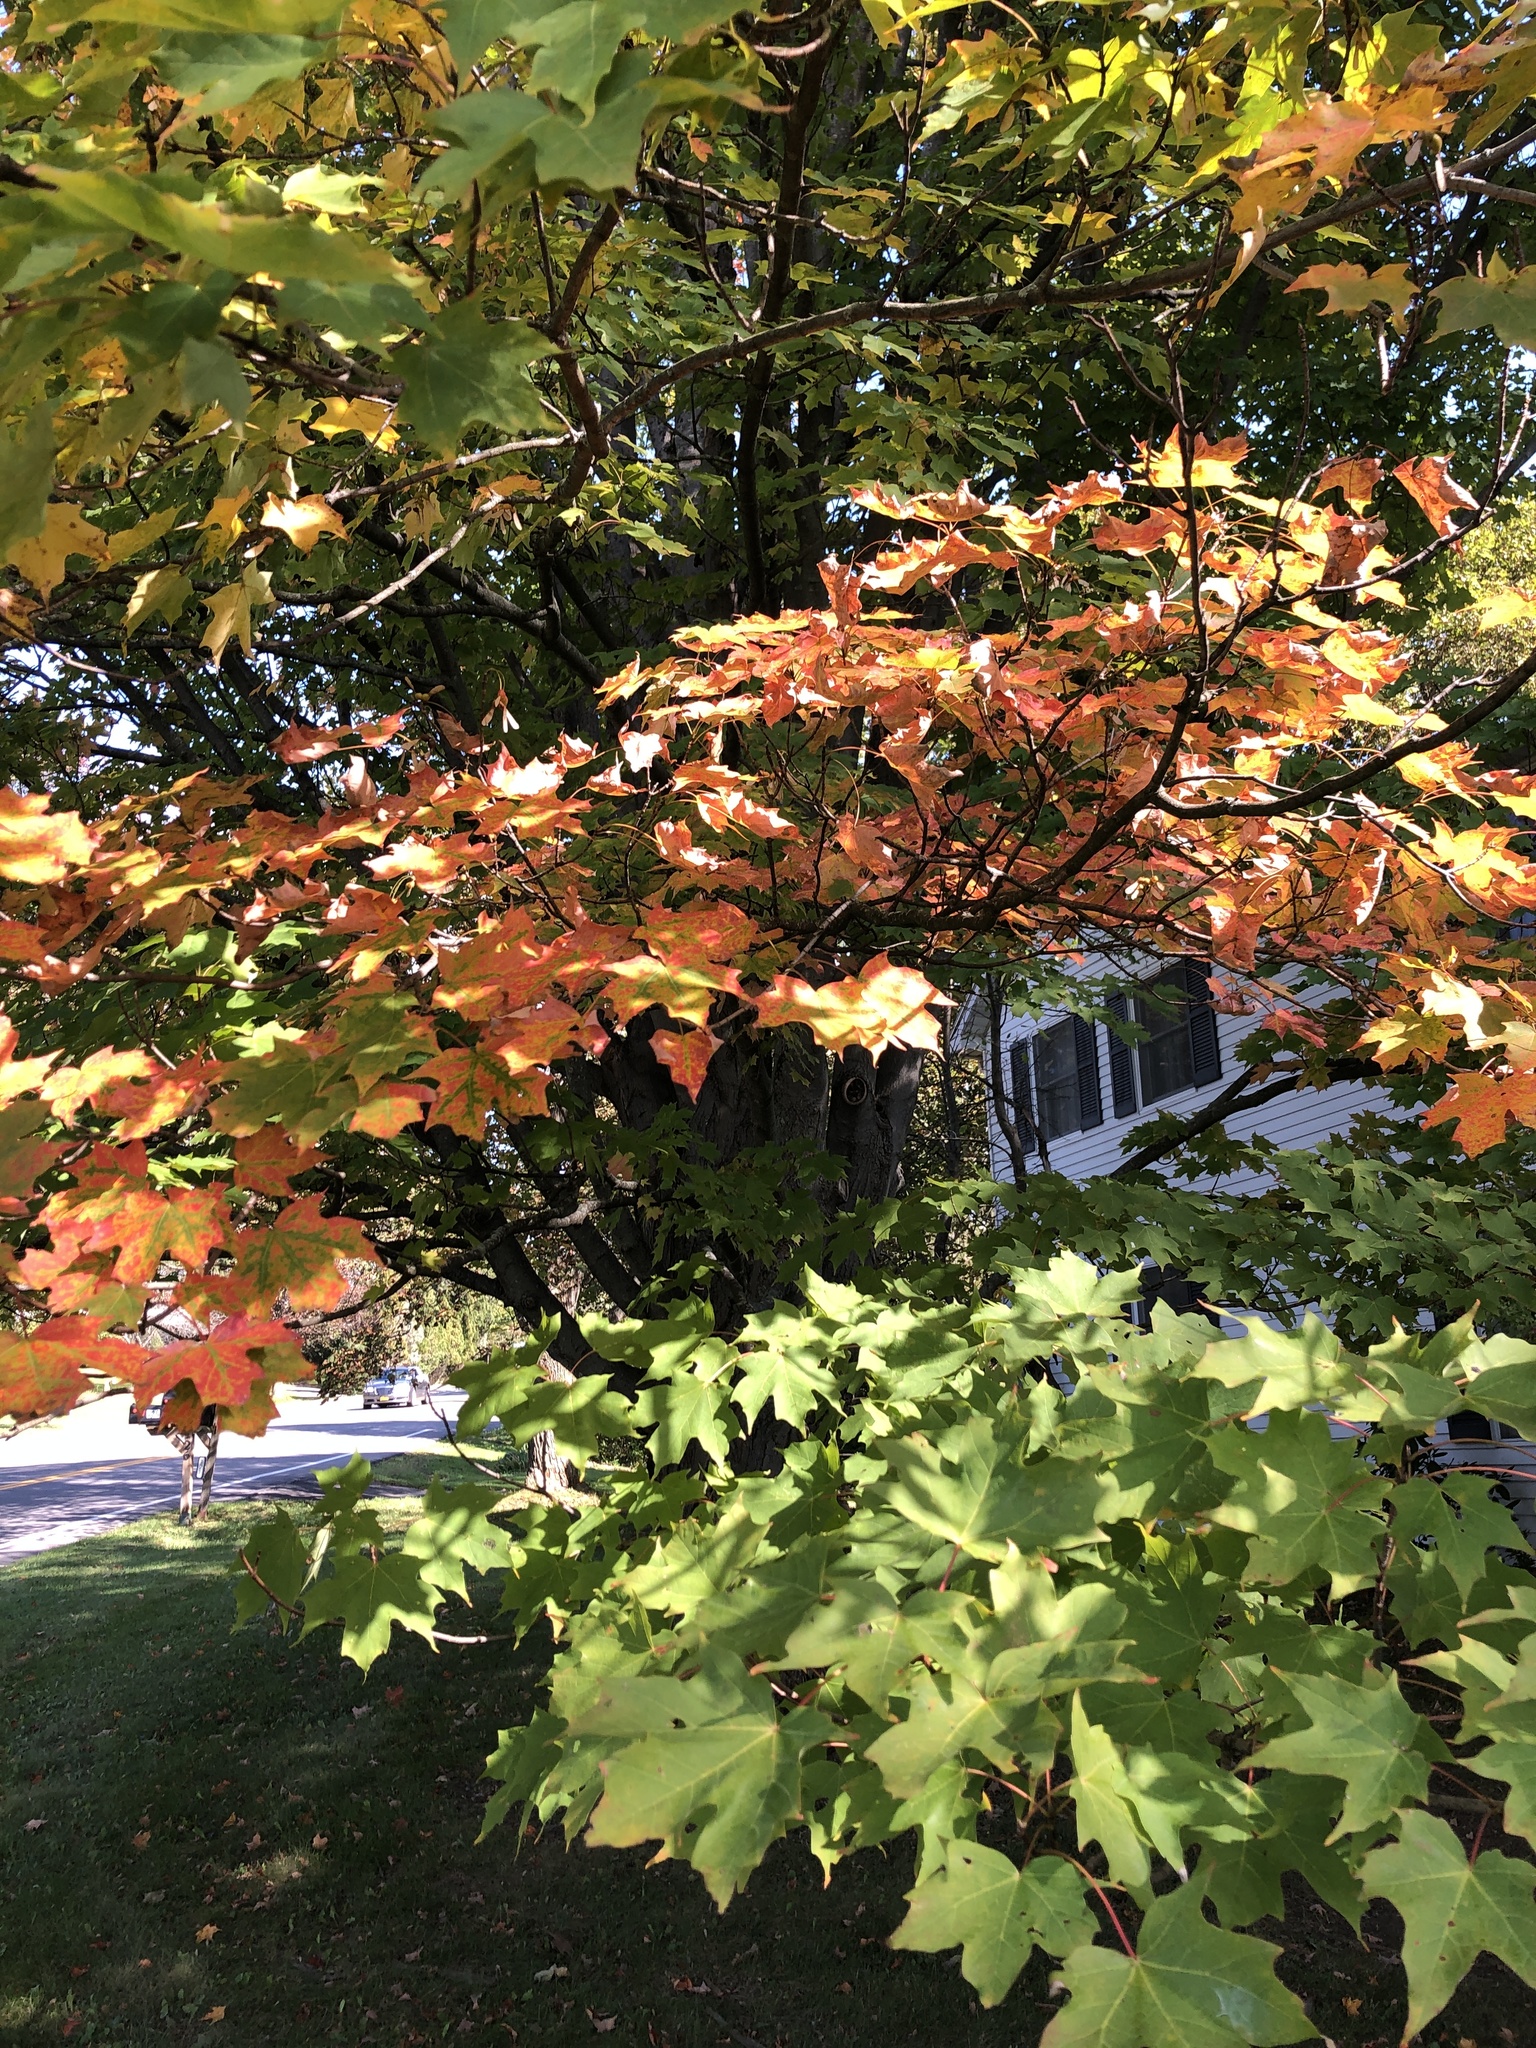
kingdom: Plantae
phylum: Tracheophyta
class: Magnoliopsida
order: Sapindales
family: Sapindaceae
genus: Acer
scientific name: Acer saccharum
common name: Sugar maple
